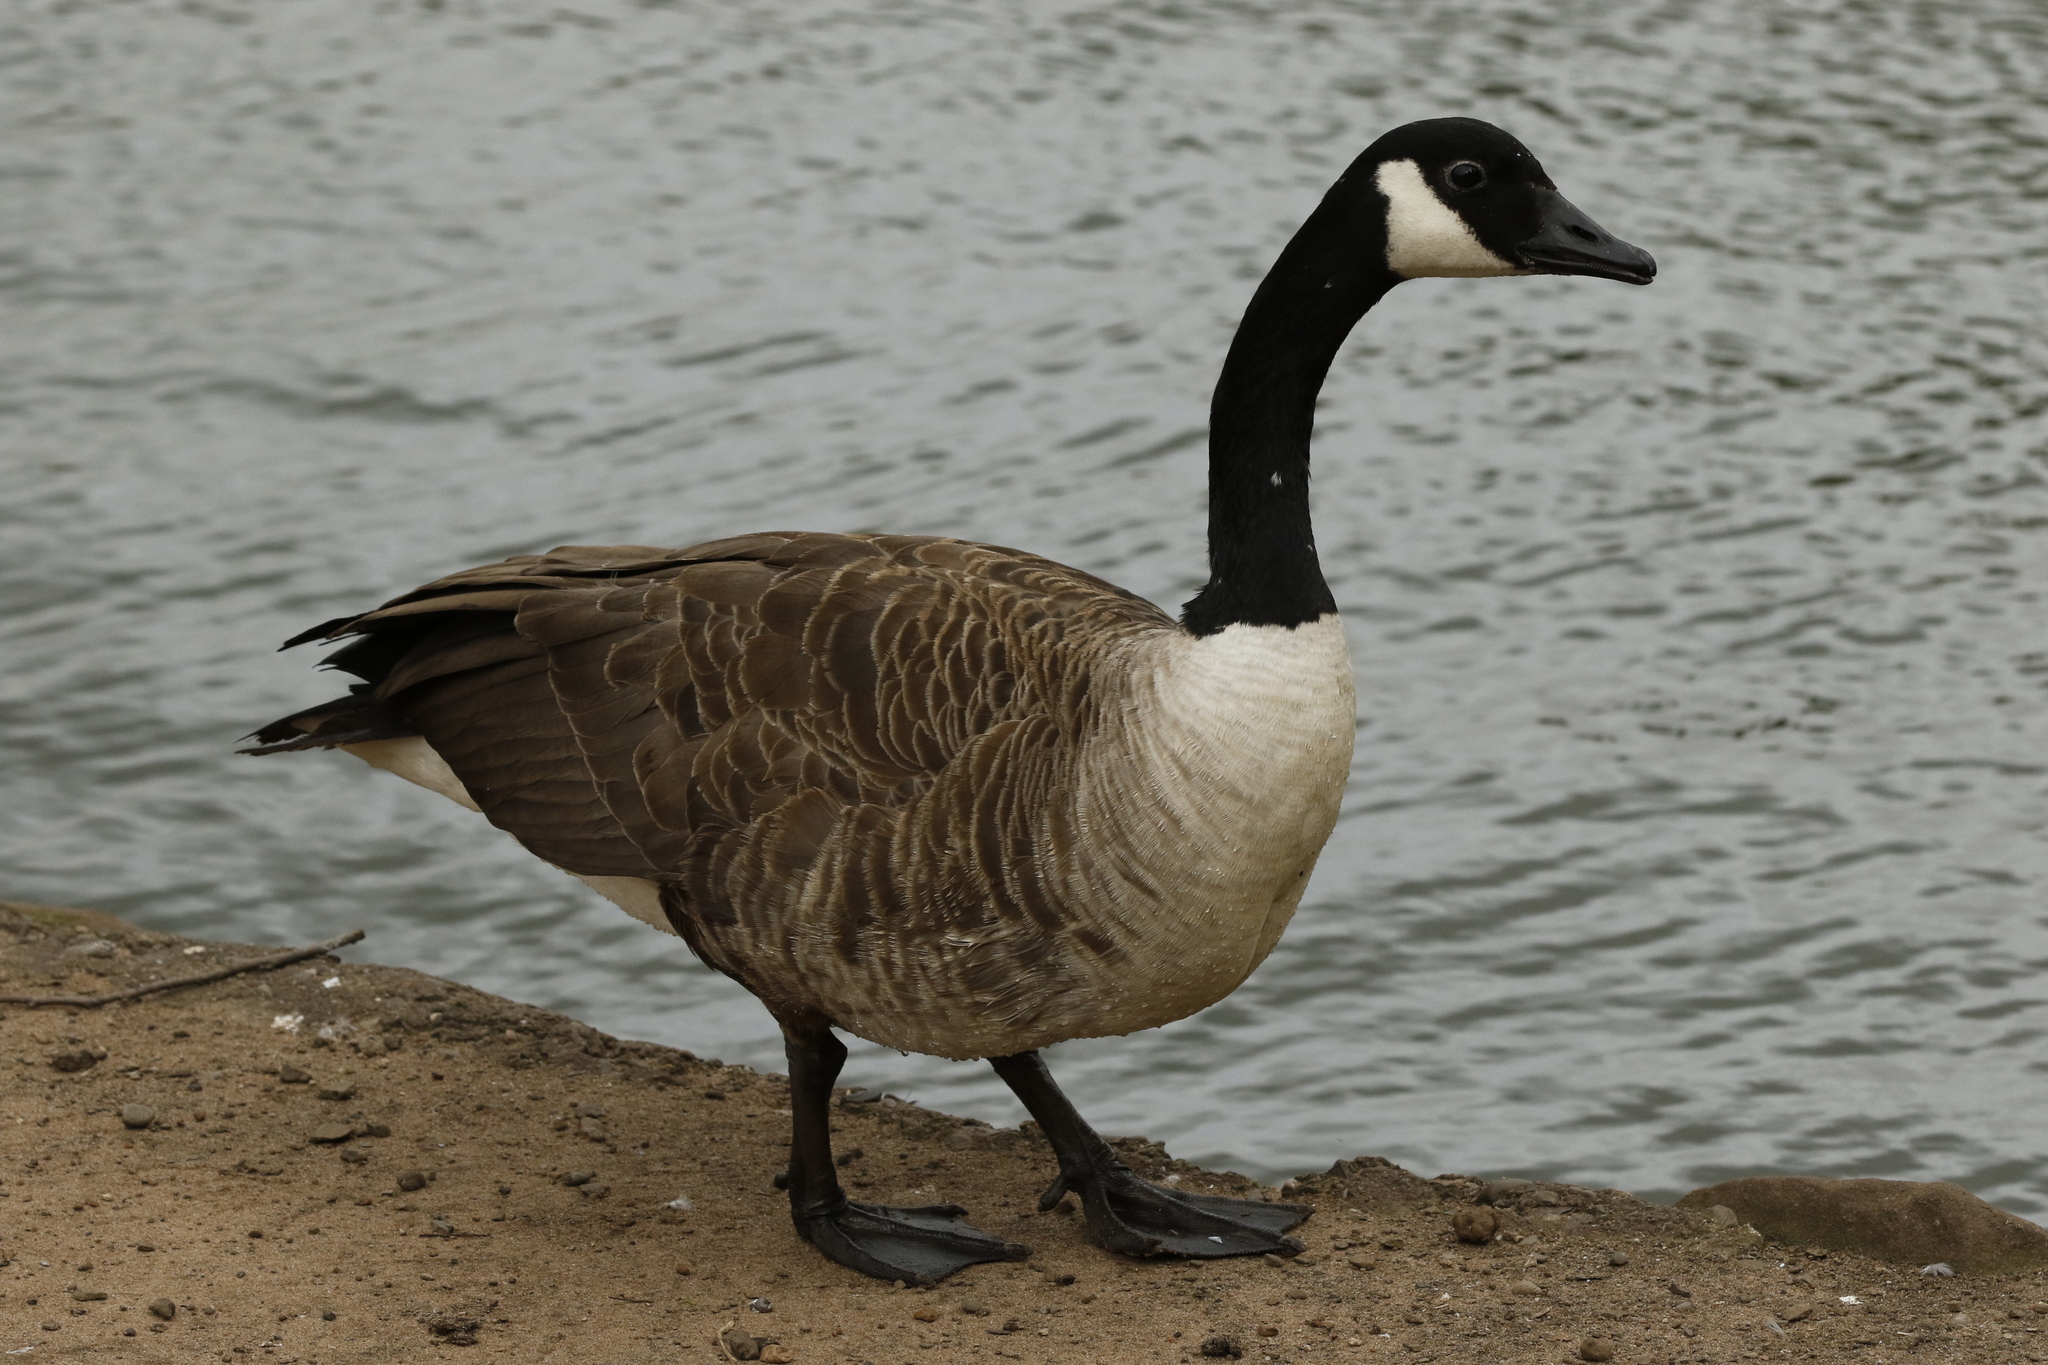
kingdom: Animalia
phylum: Chordata
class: Aves
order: Anseriformes
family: Anatidae
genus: Branta
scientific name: Branta canadensis
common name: Canada goose
